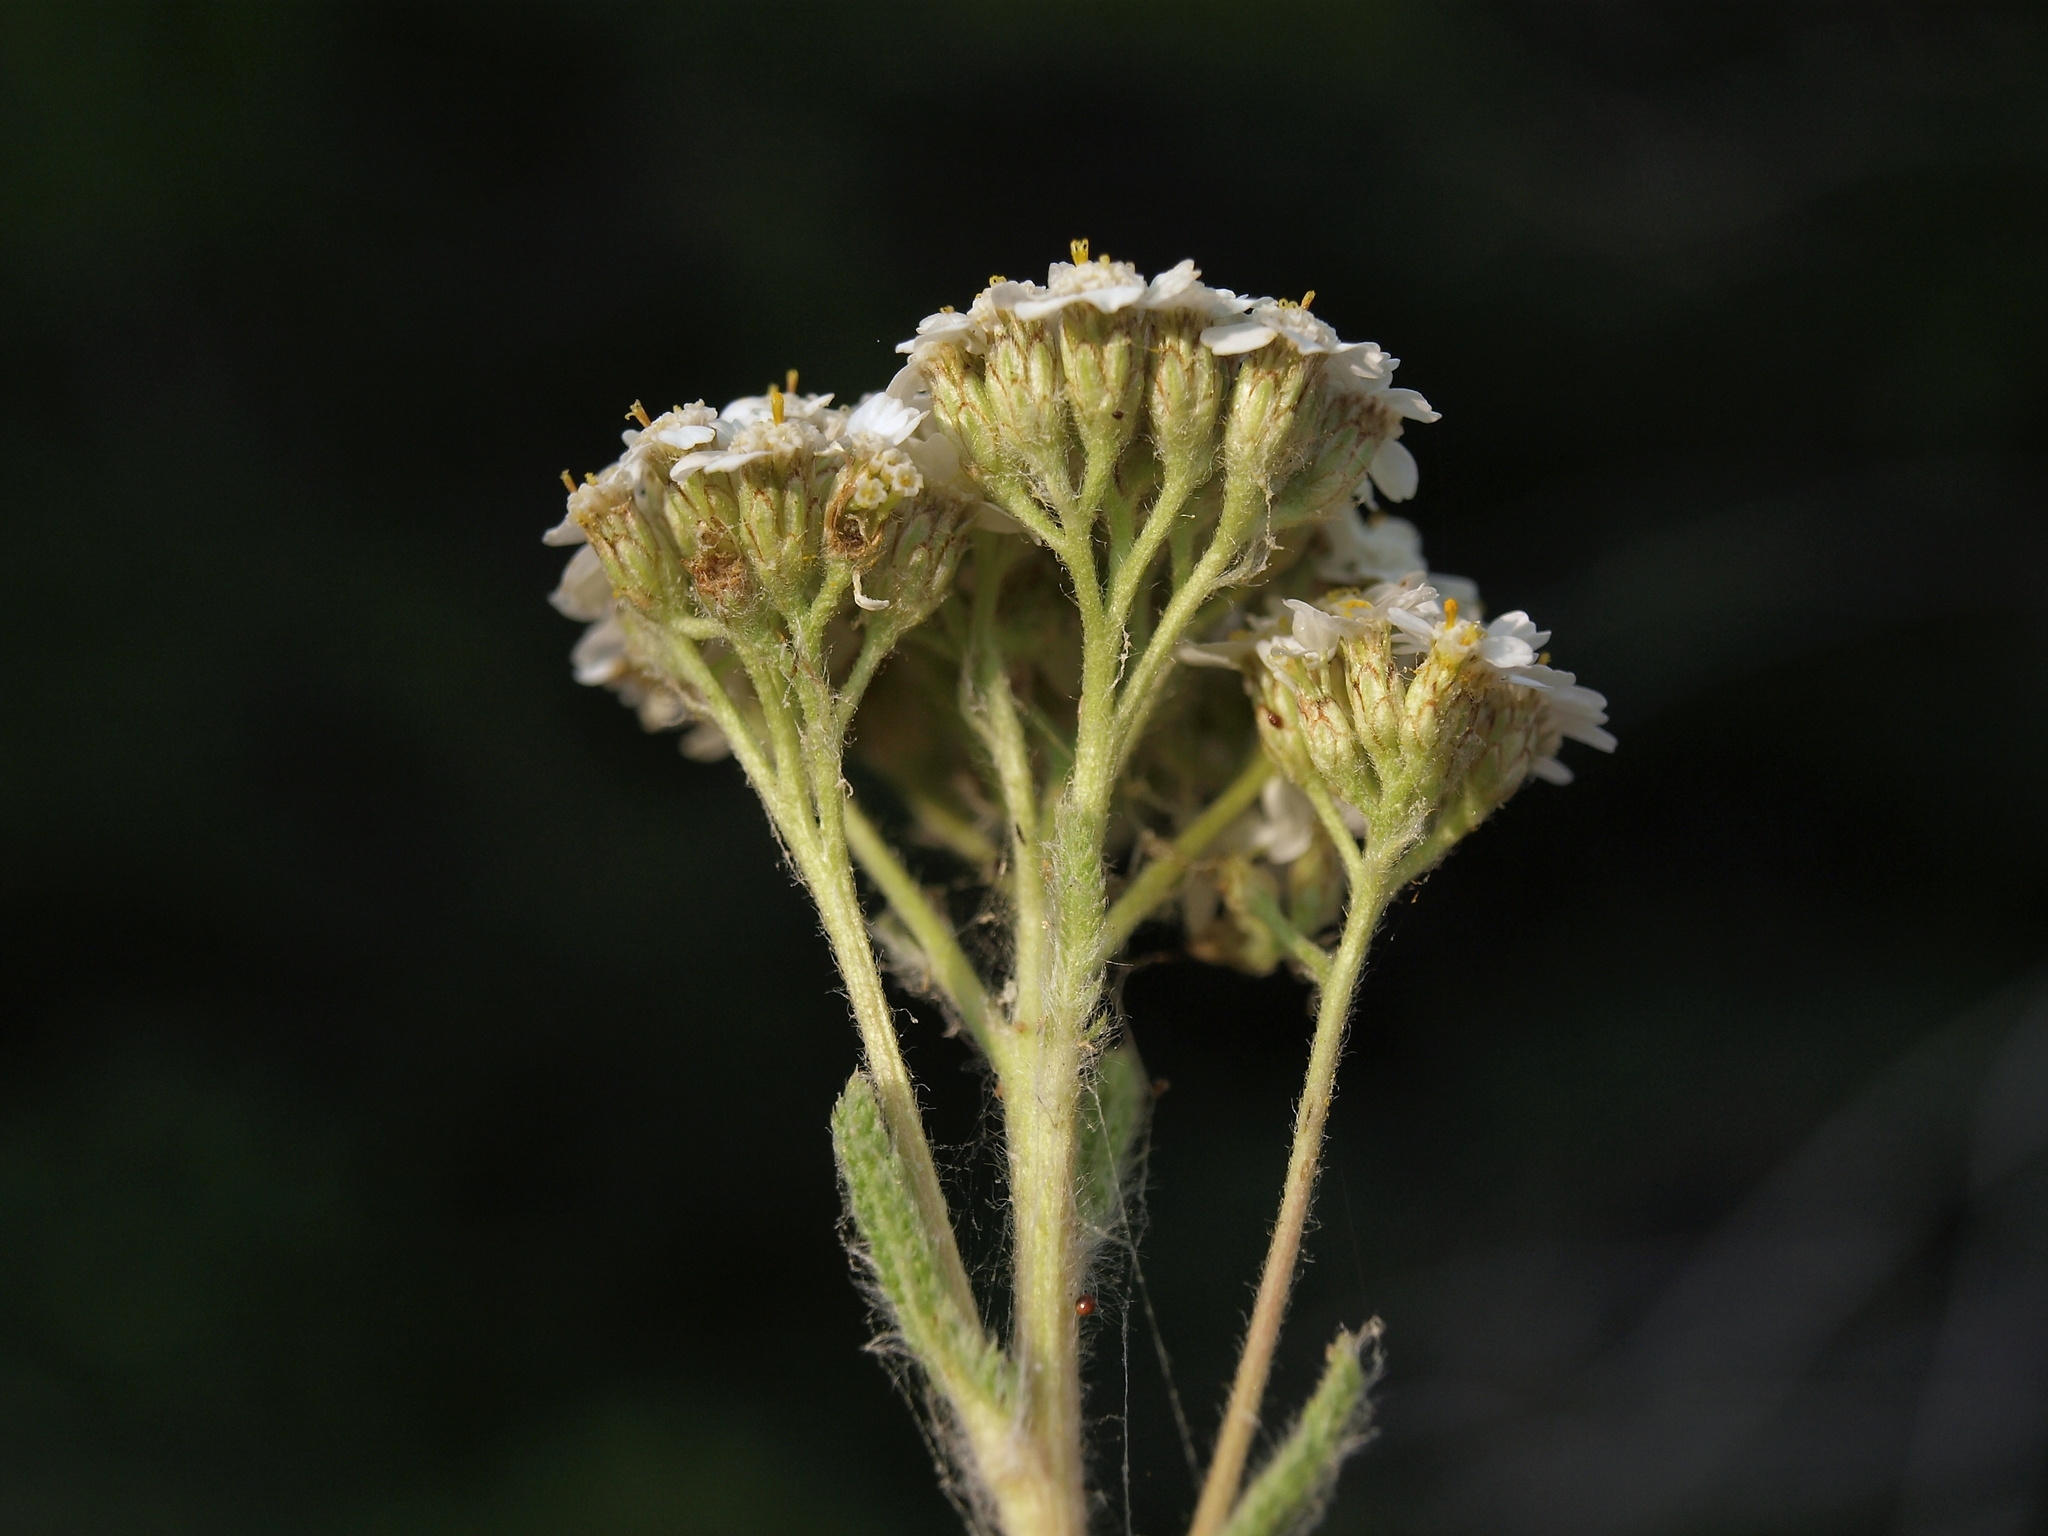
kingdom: Plantae
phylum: Tracheophyta
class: Magnoliopsida
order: Asterales
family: Asteraceae
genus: Achillea
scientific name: Achillea millefolium
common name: Yarrow
